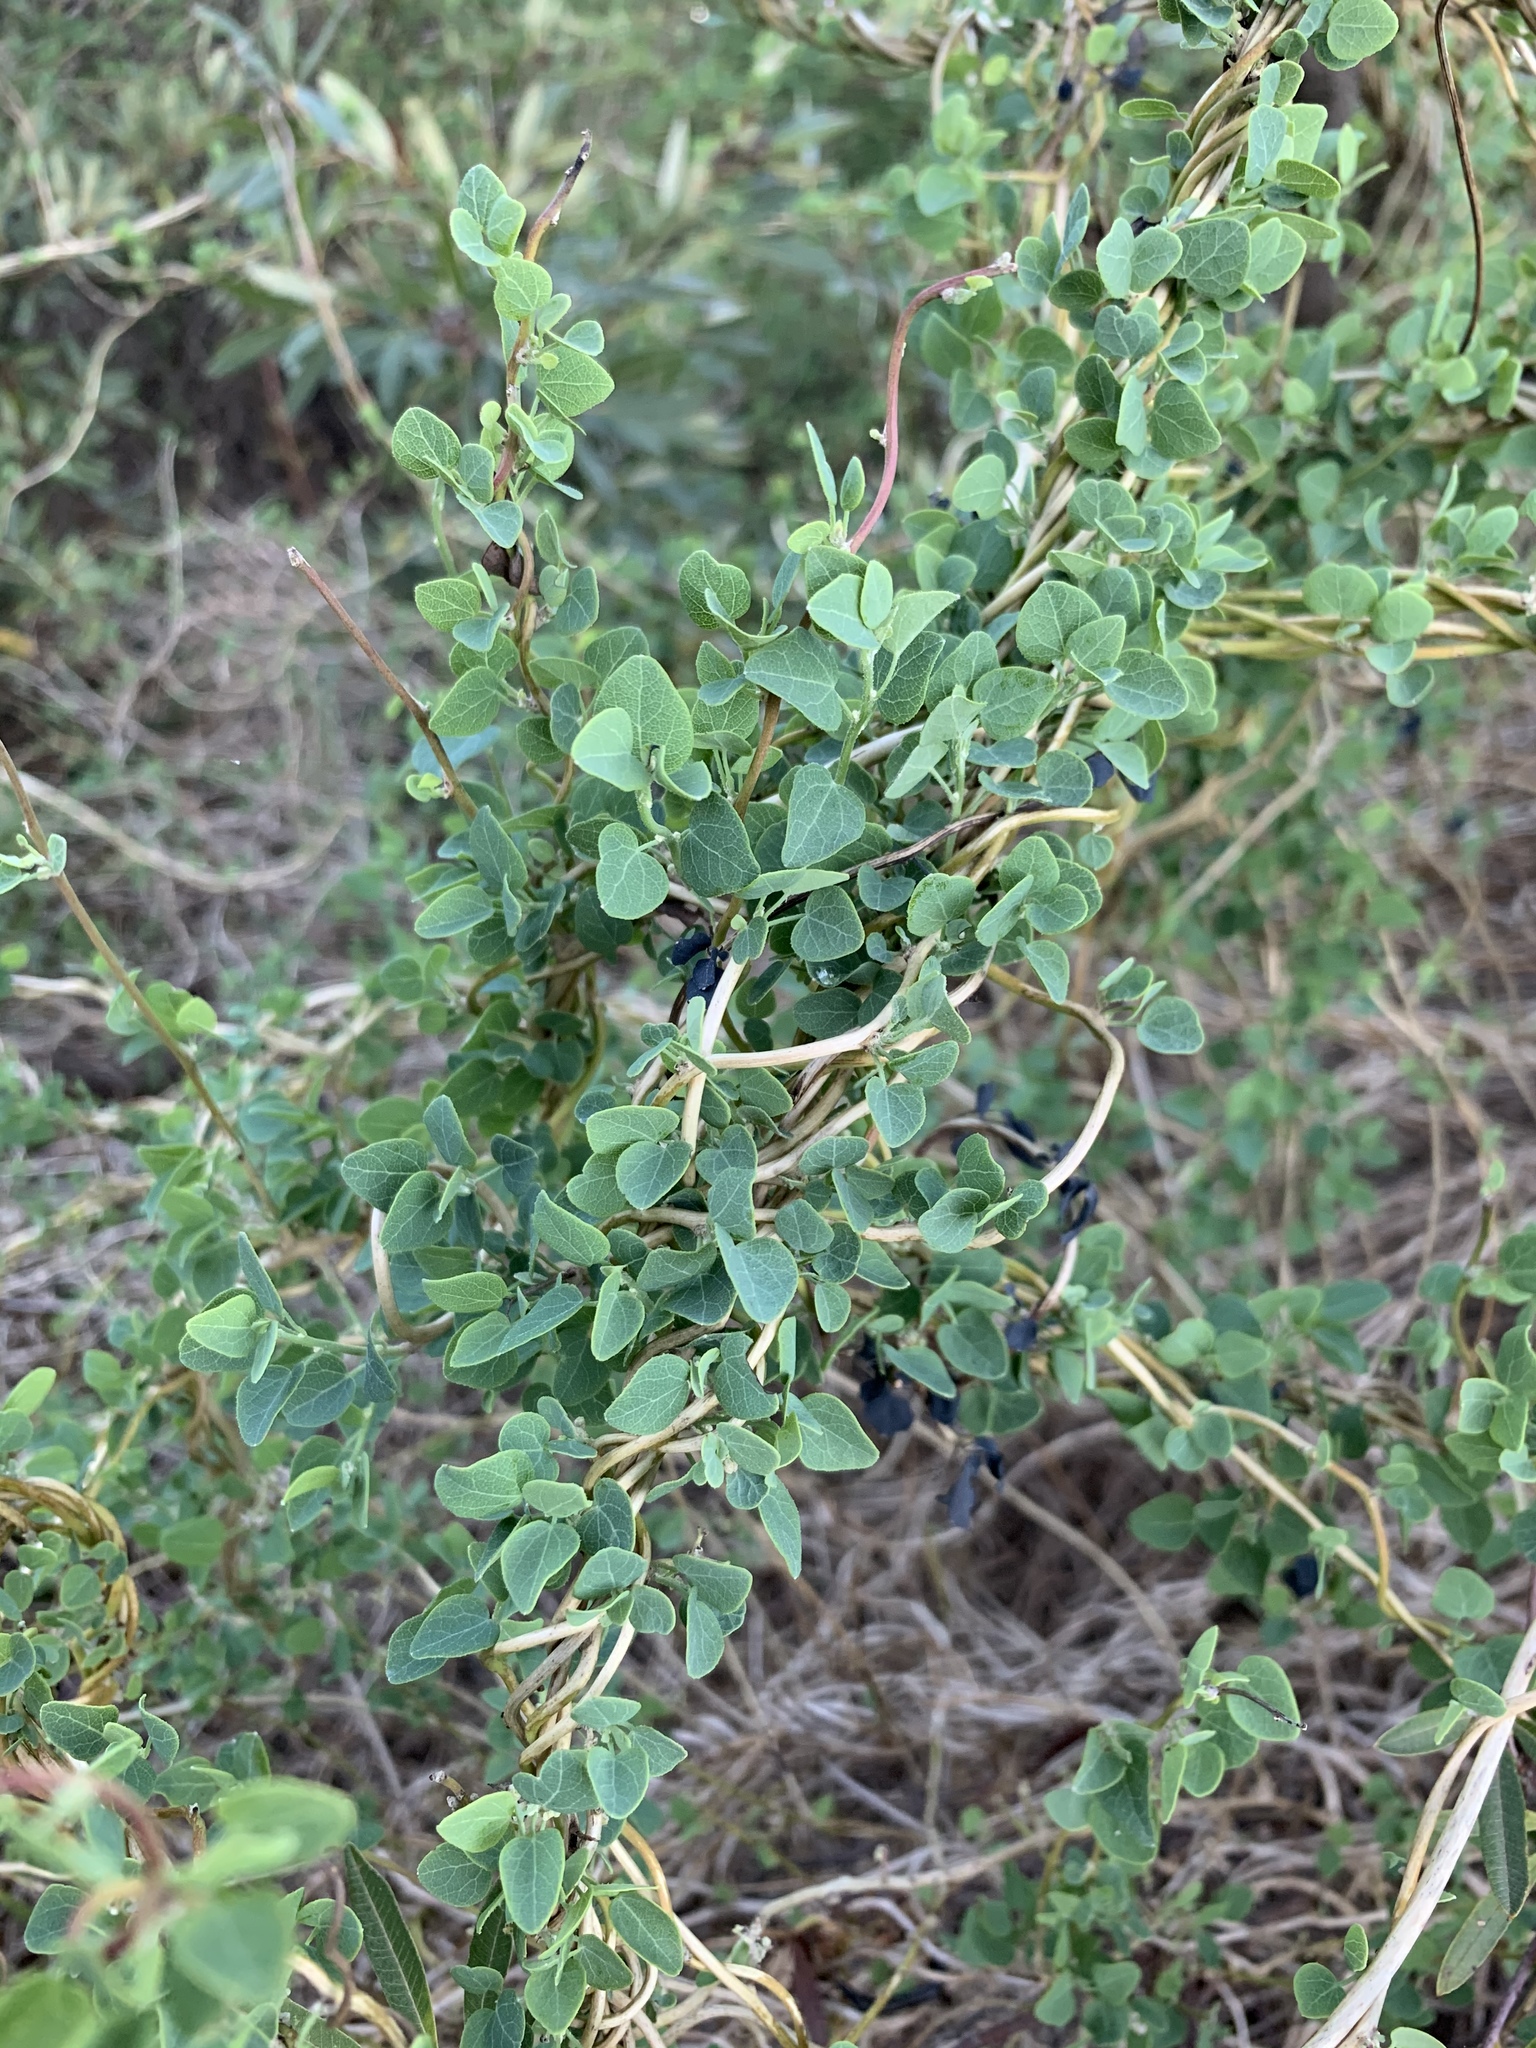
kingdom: Plantae
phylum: Tracheophyta
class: Magnoliopsida
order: Ranunculales
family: Menispermaceae
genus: Cissampelos
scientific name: Cissampelos capensis
